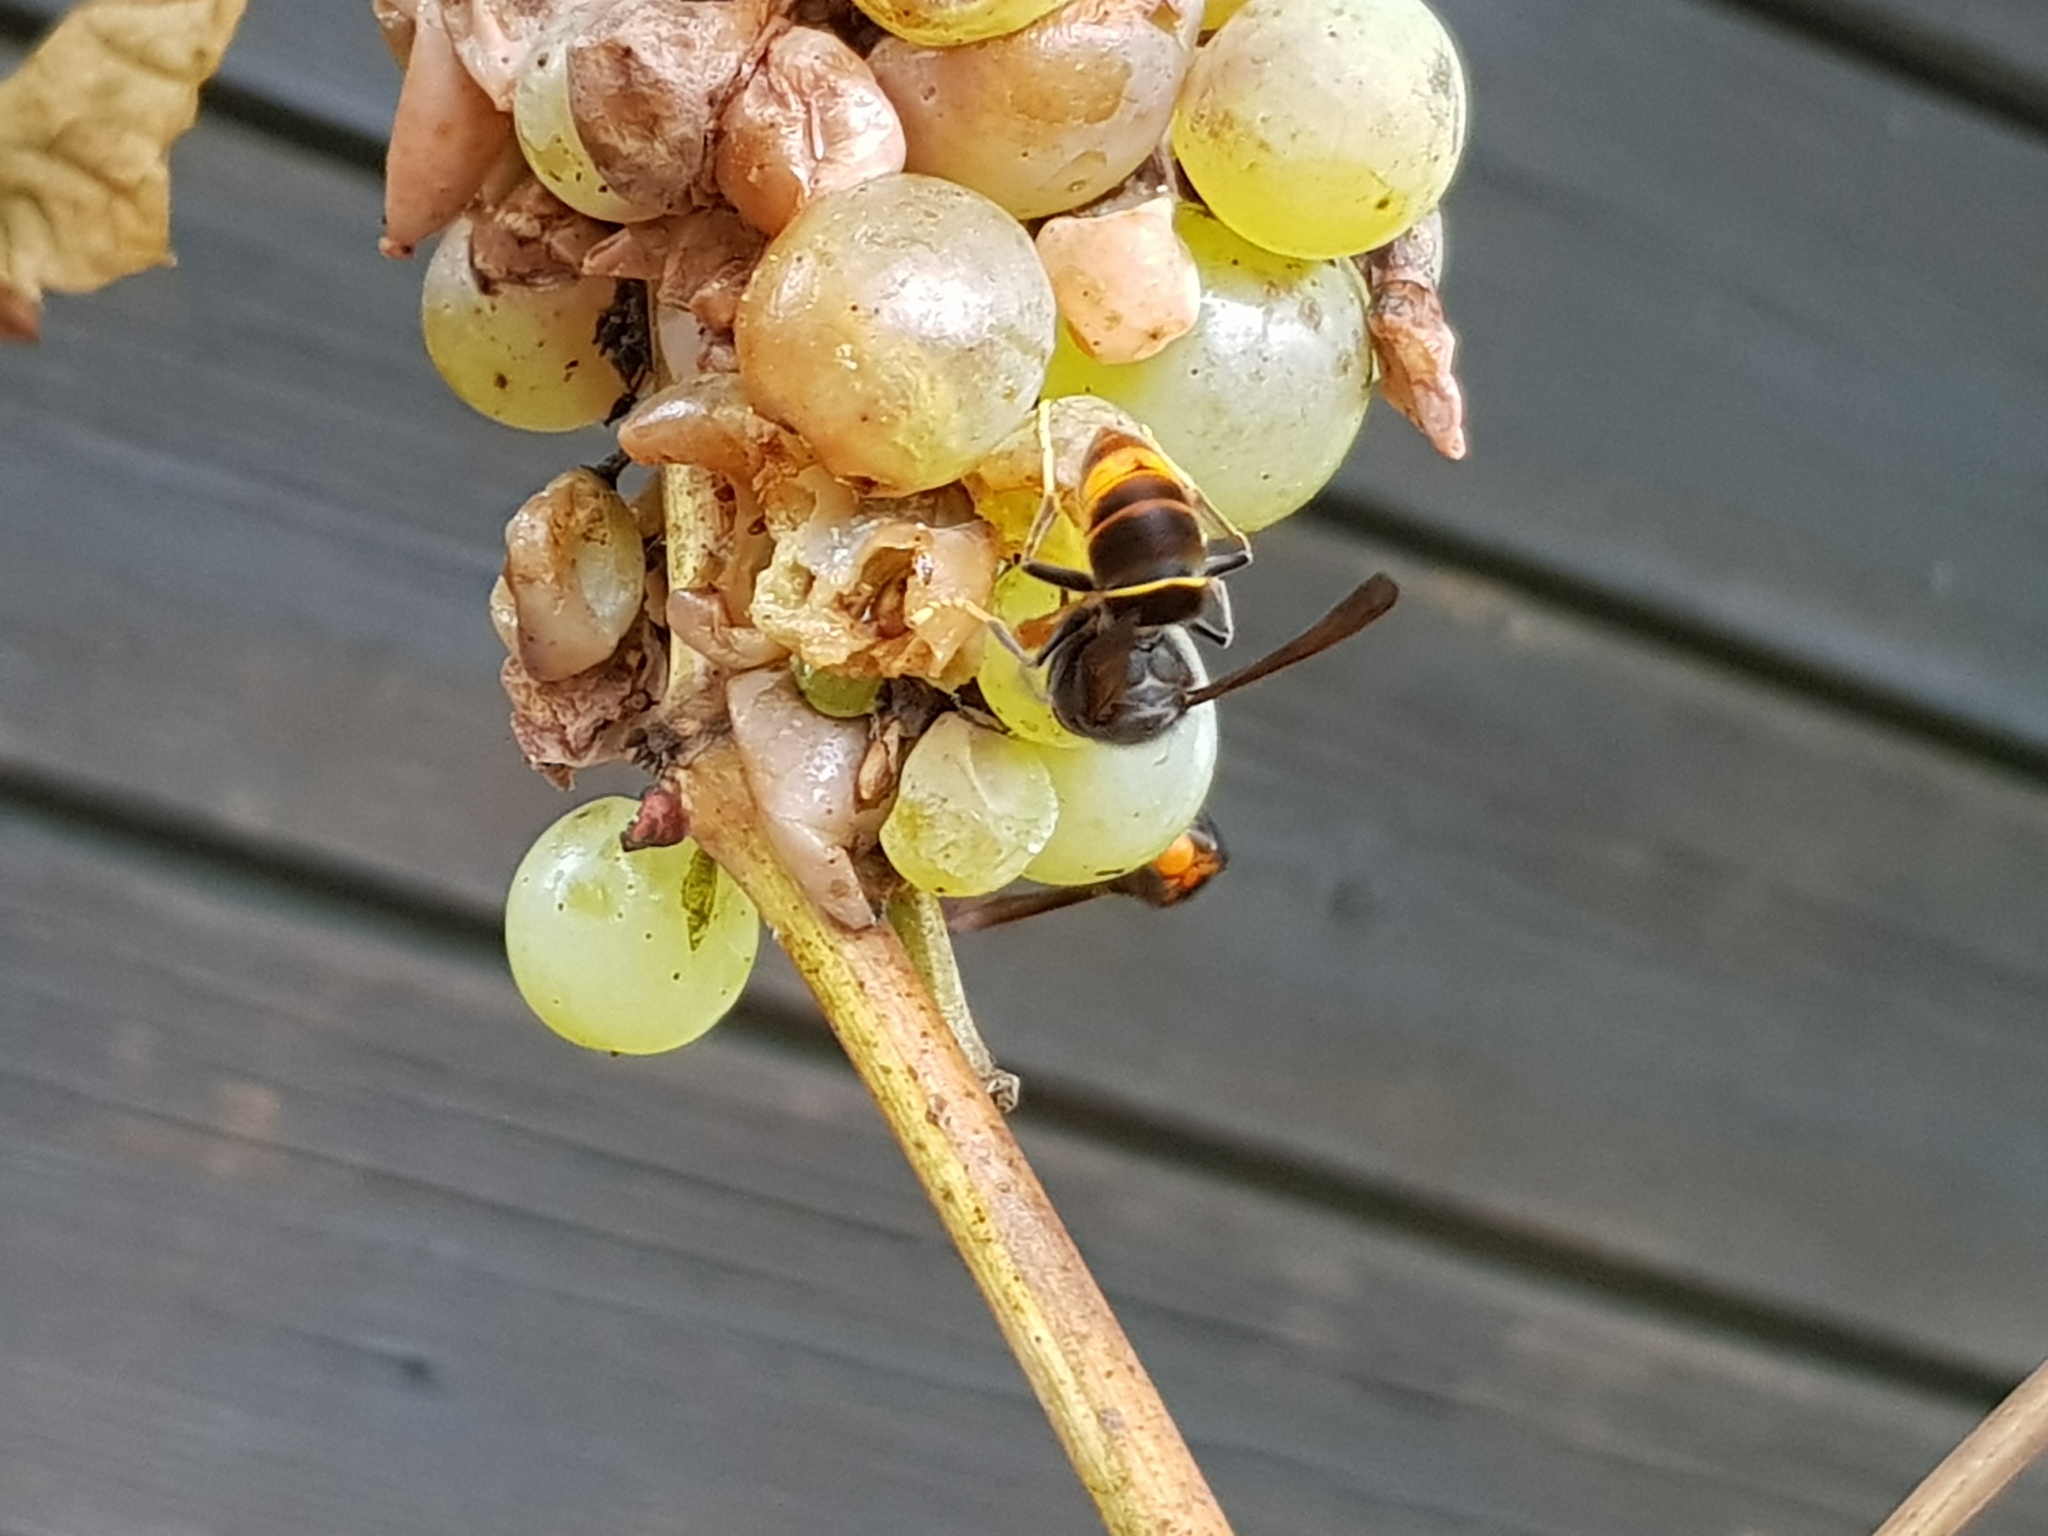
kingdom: Animalia
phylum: Arthropoda
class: Insecta
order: Hymenoptera
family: Vespidae
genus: Vespa
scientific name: Vespa velutina
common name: Asian hornet
